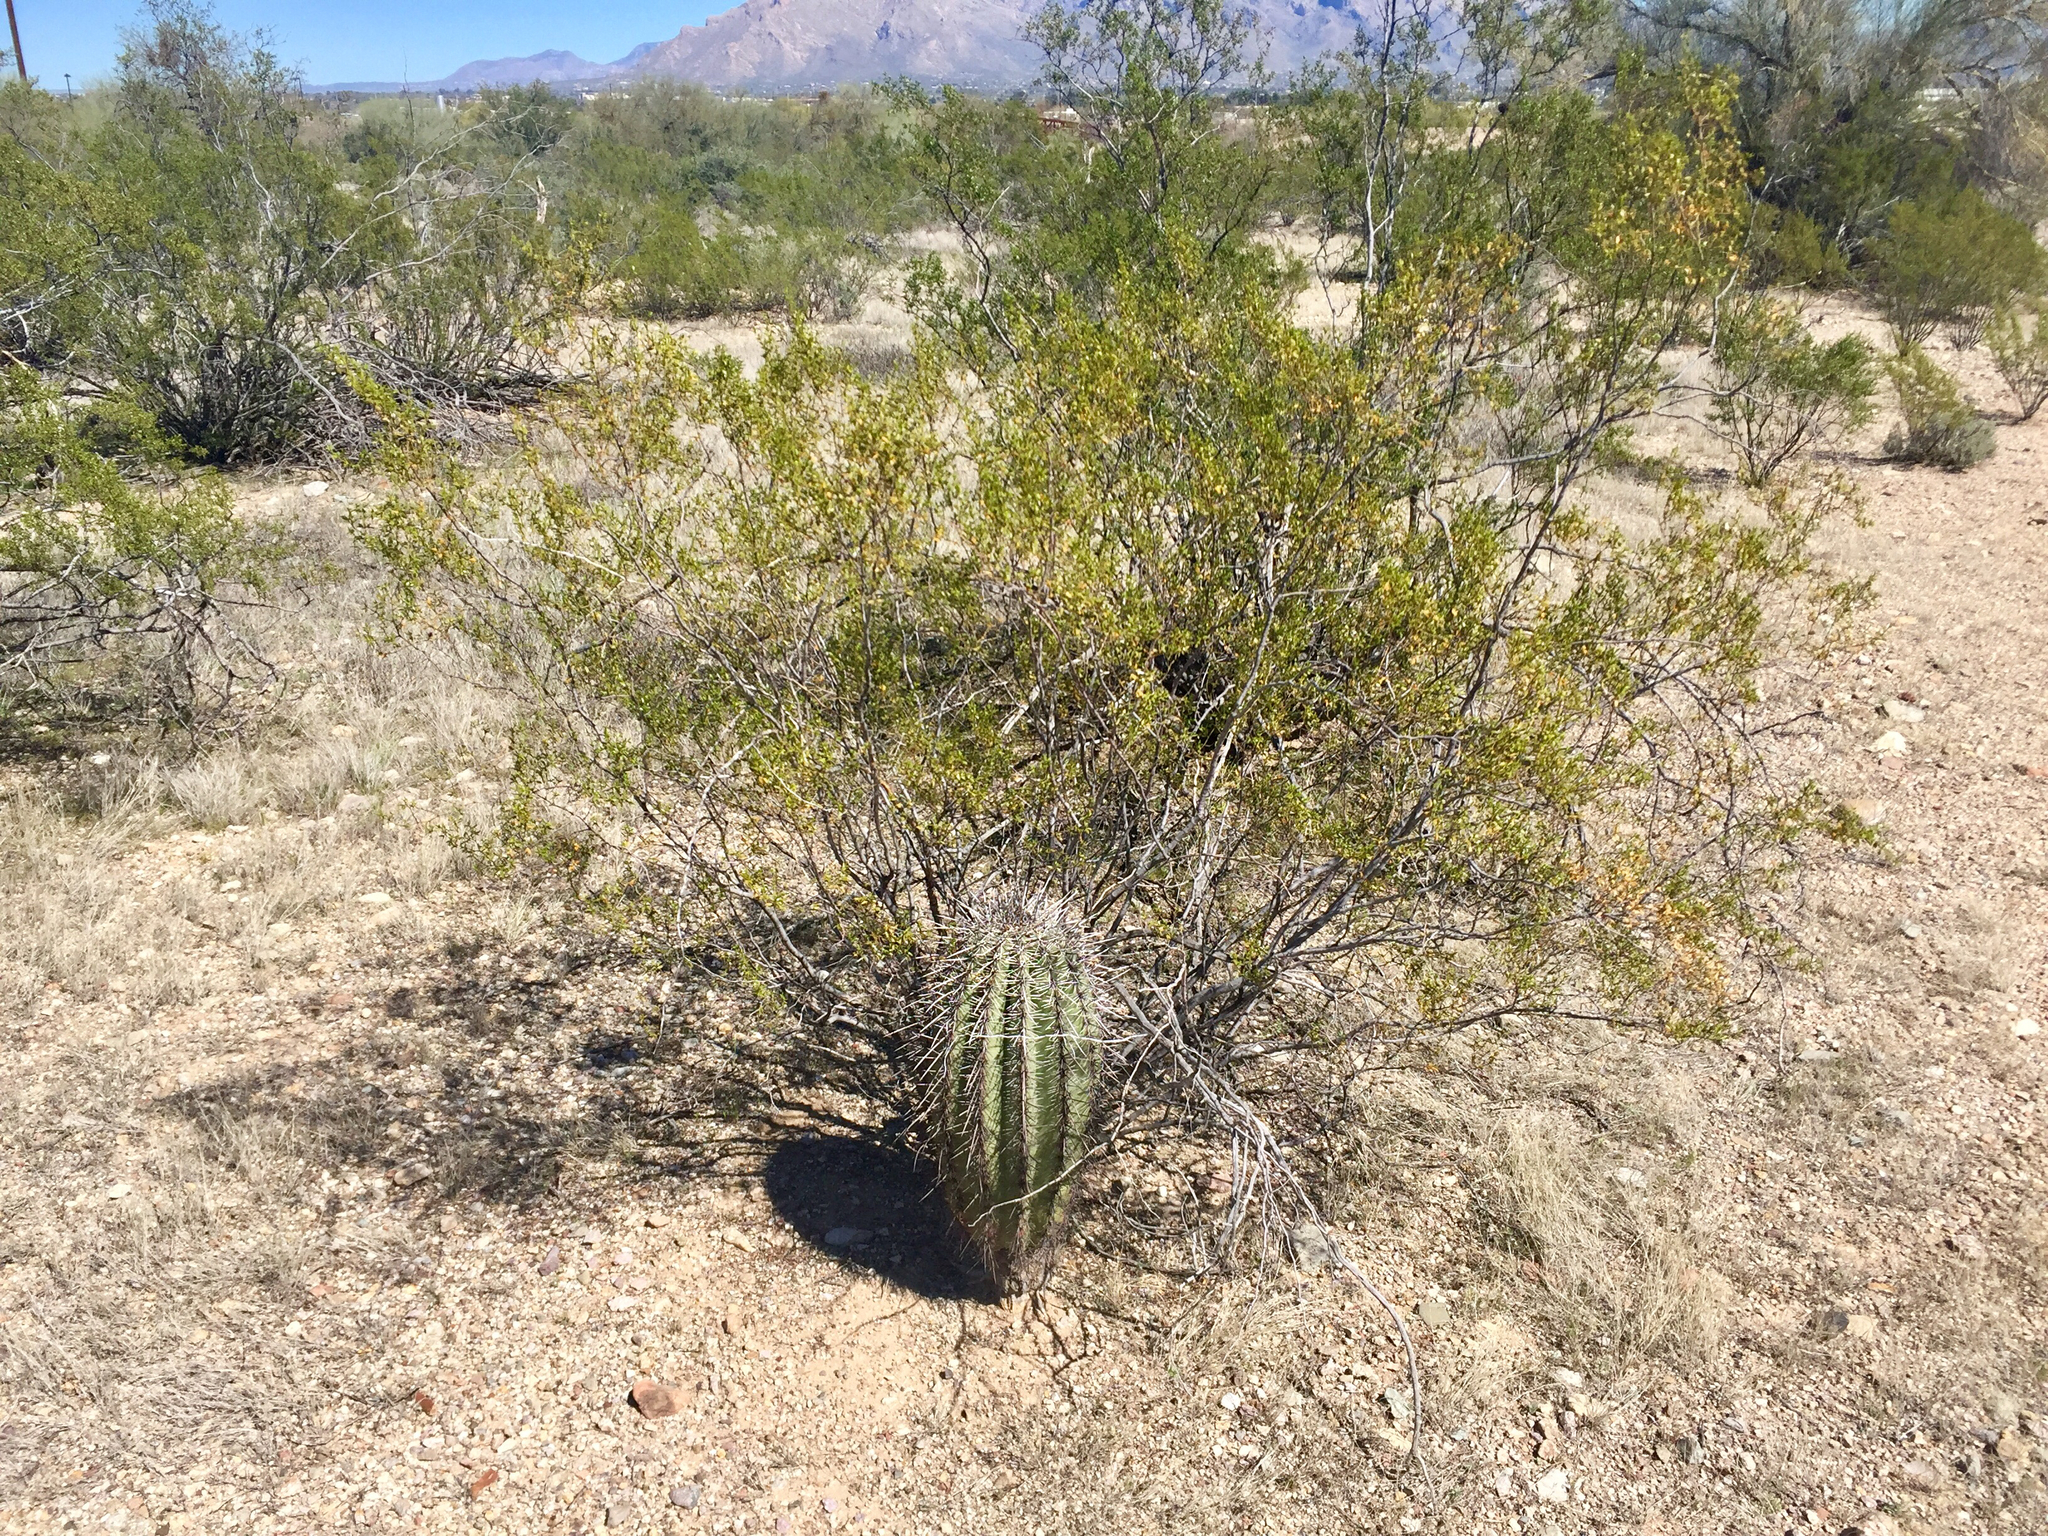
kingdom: Plantae
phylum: Tracheophyta
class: Magnoliopsida
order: Zygophyllales
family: Zygophyllaceae
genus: Larrea
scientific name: Larrea tridentata
